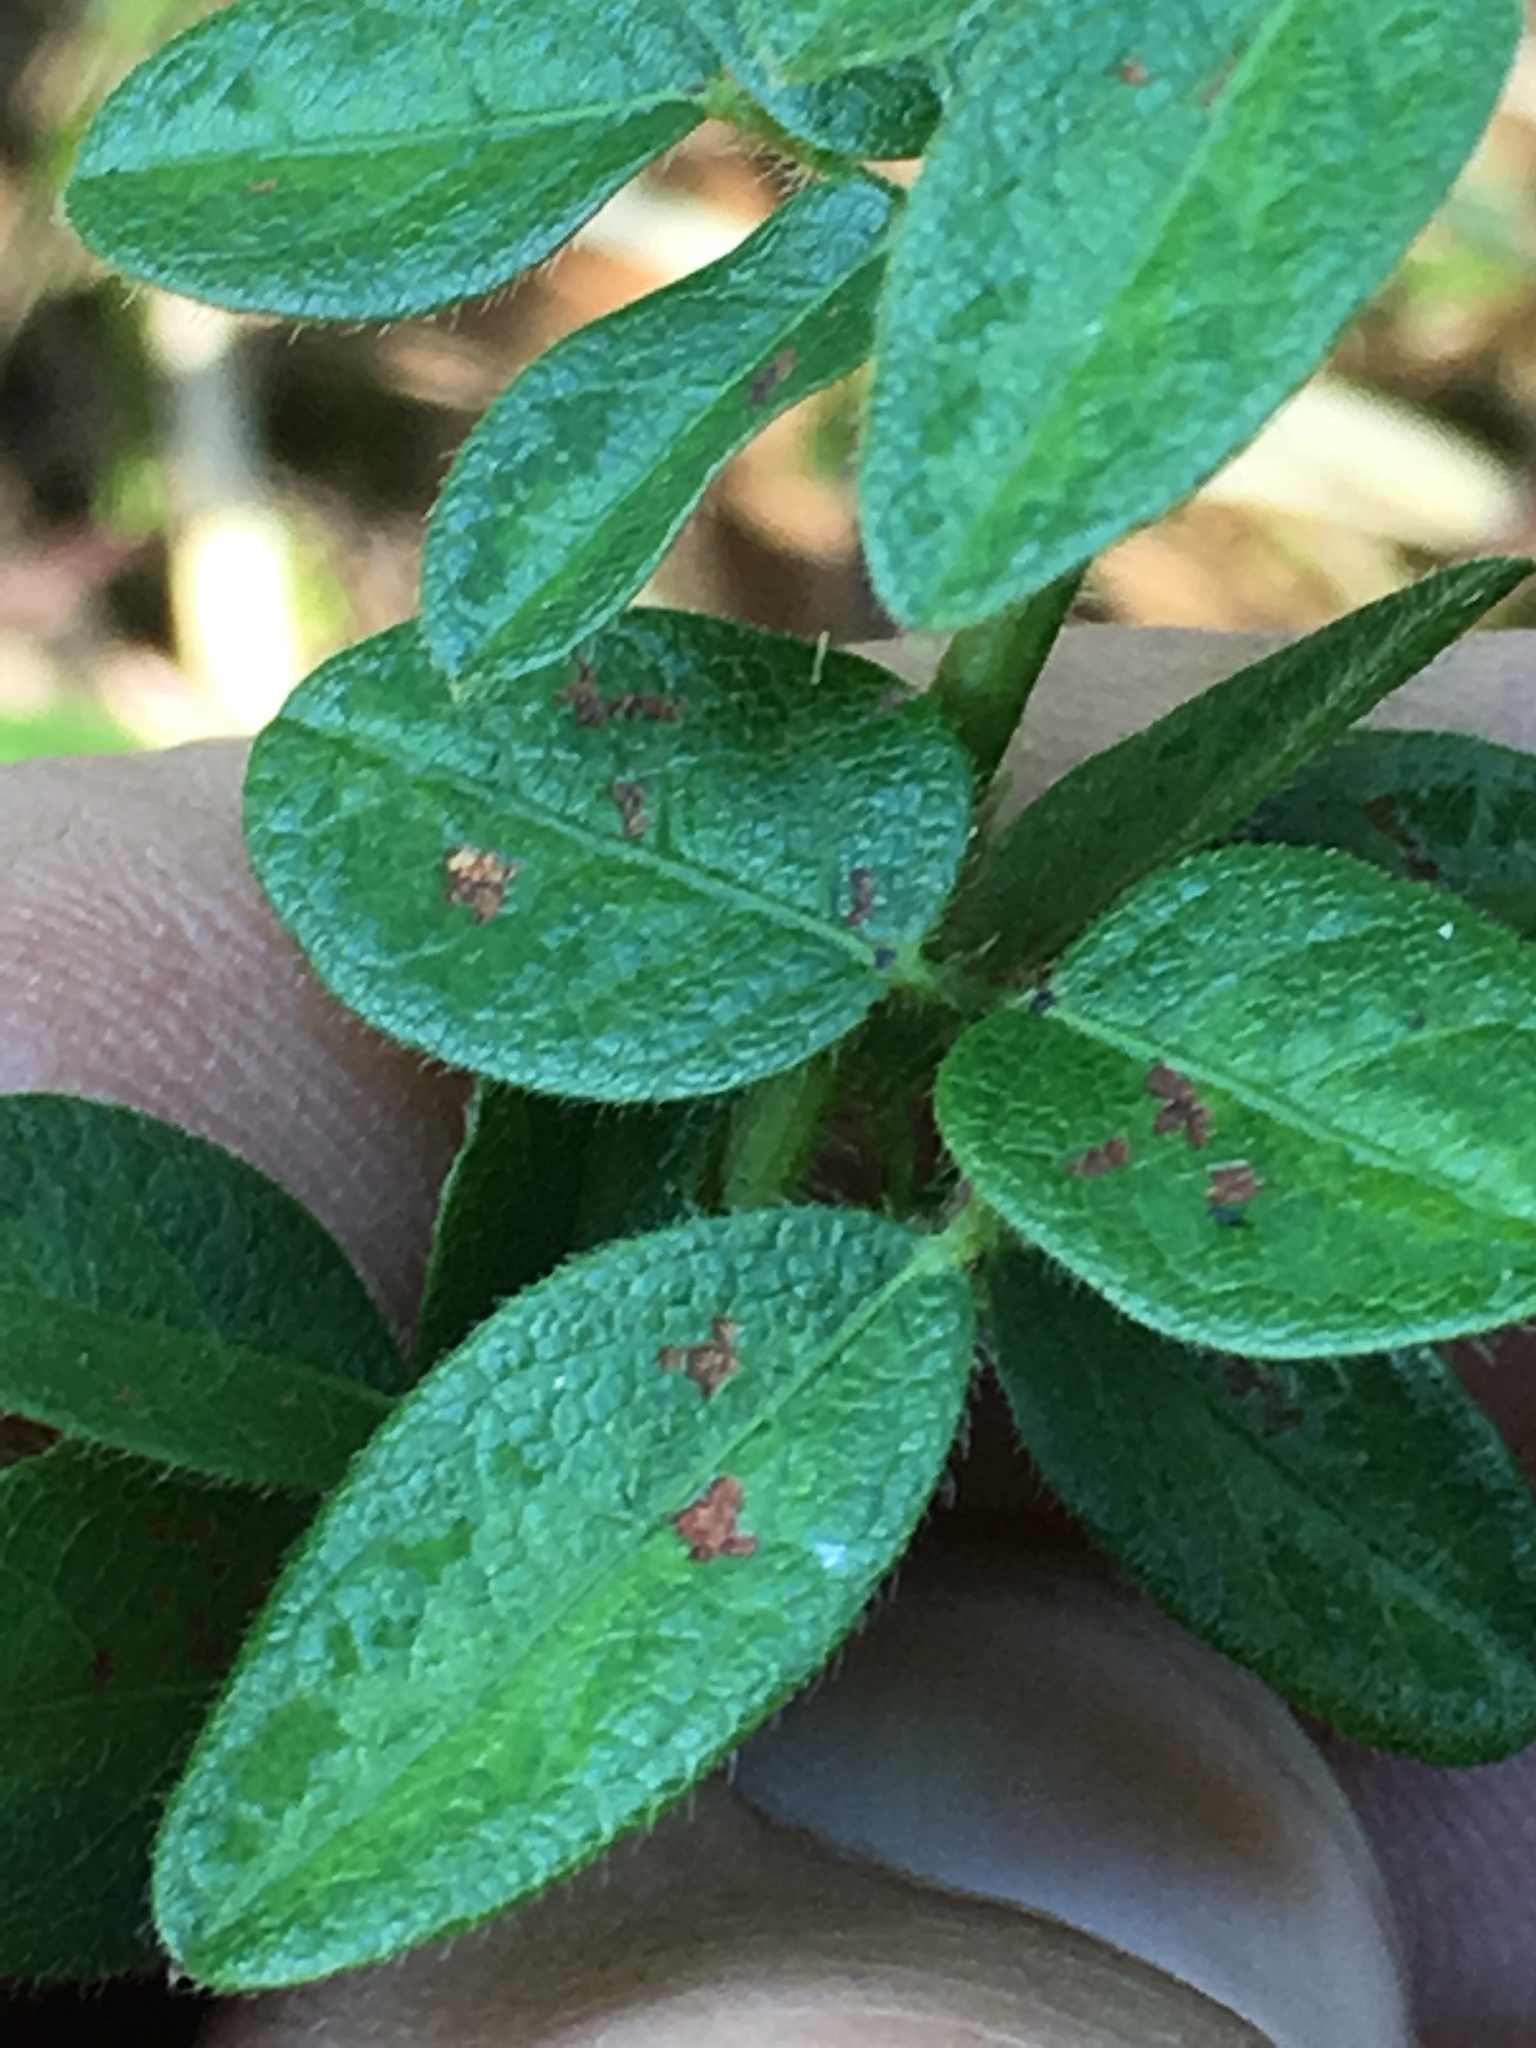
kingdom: Plantae
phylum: Tracheophyta
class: Magnoliopsida
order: Fabales
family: Fabaceae
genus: Desmodium
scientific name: Desmodium ciliare
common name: Hairy small-leaf ticktrefoil
